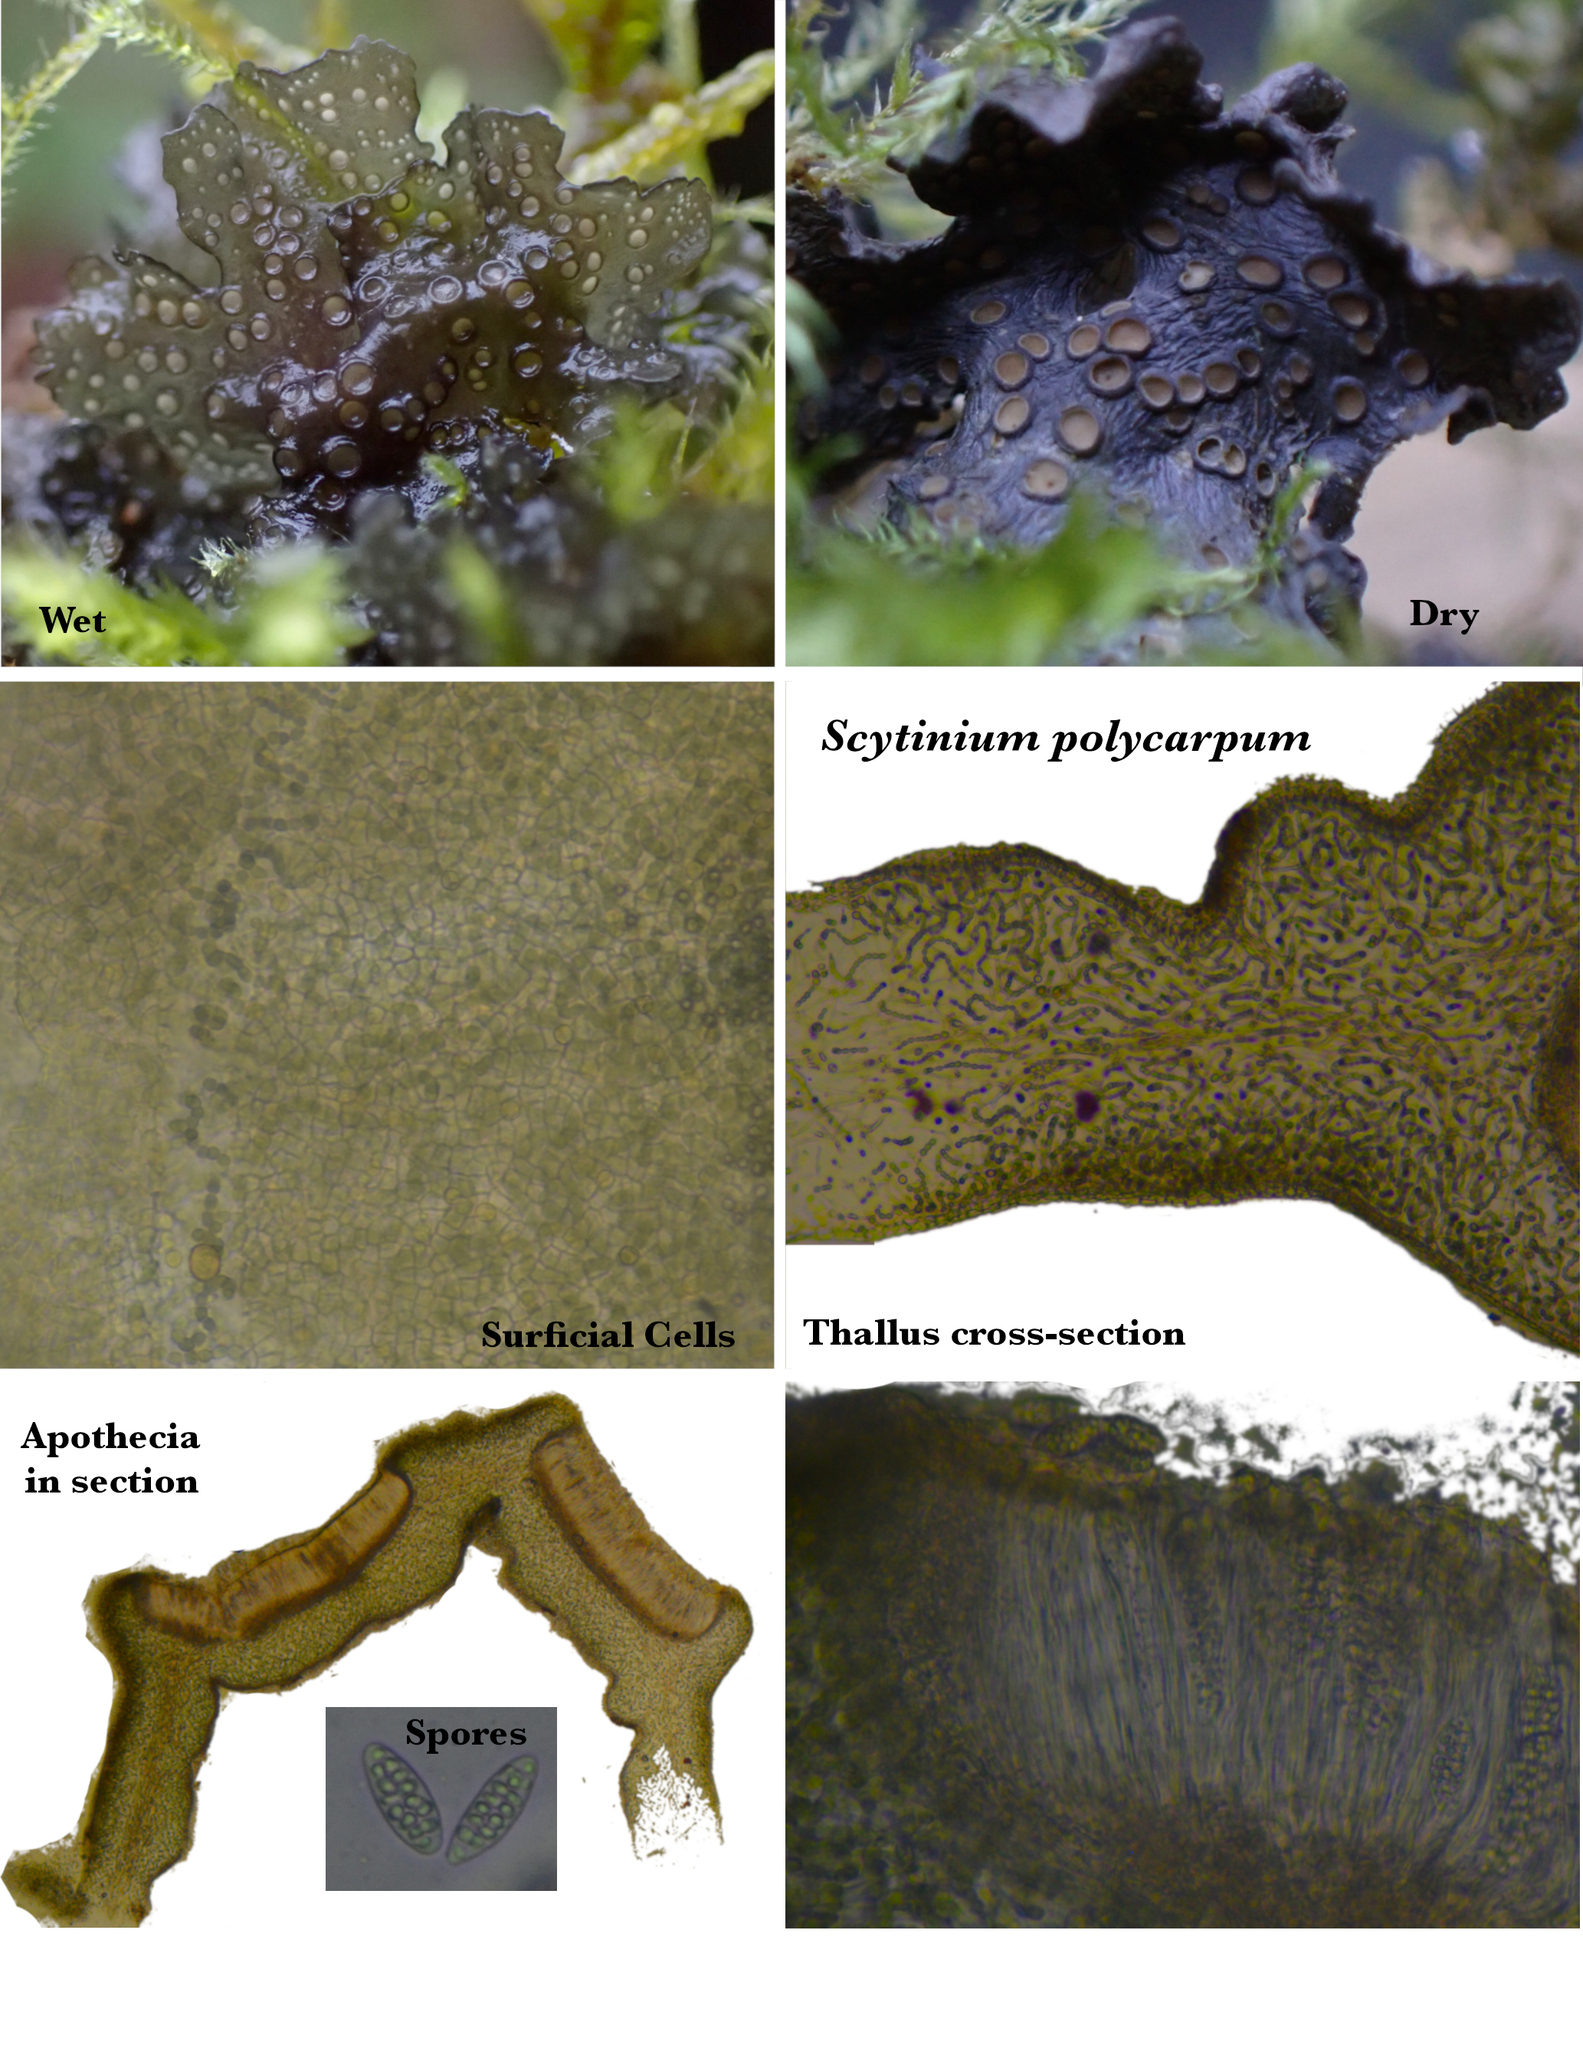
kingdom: Fungi
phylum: Ascomycota
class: Lecanoromycetes
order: Peltigerales
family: Collemataceae
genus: Scytinium
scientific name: Scytinium polycarpum
